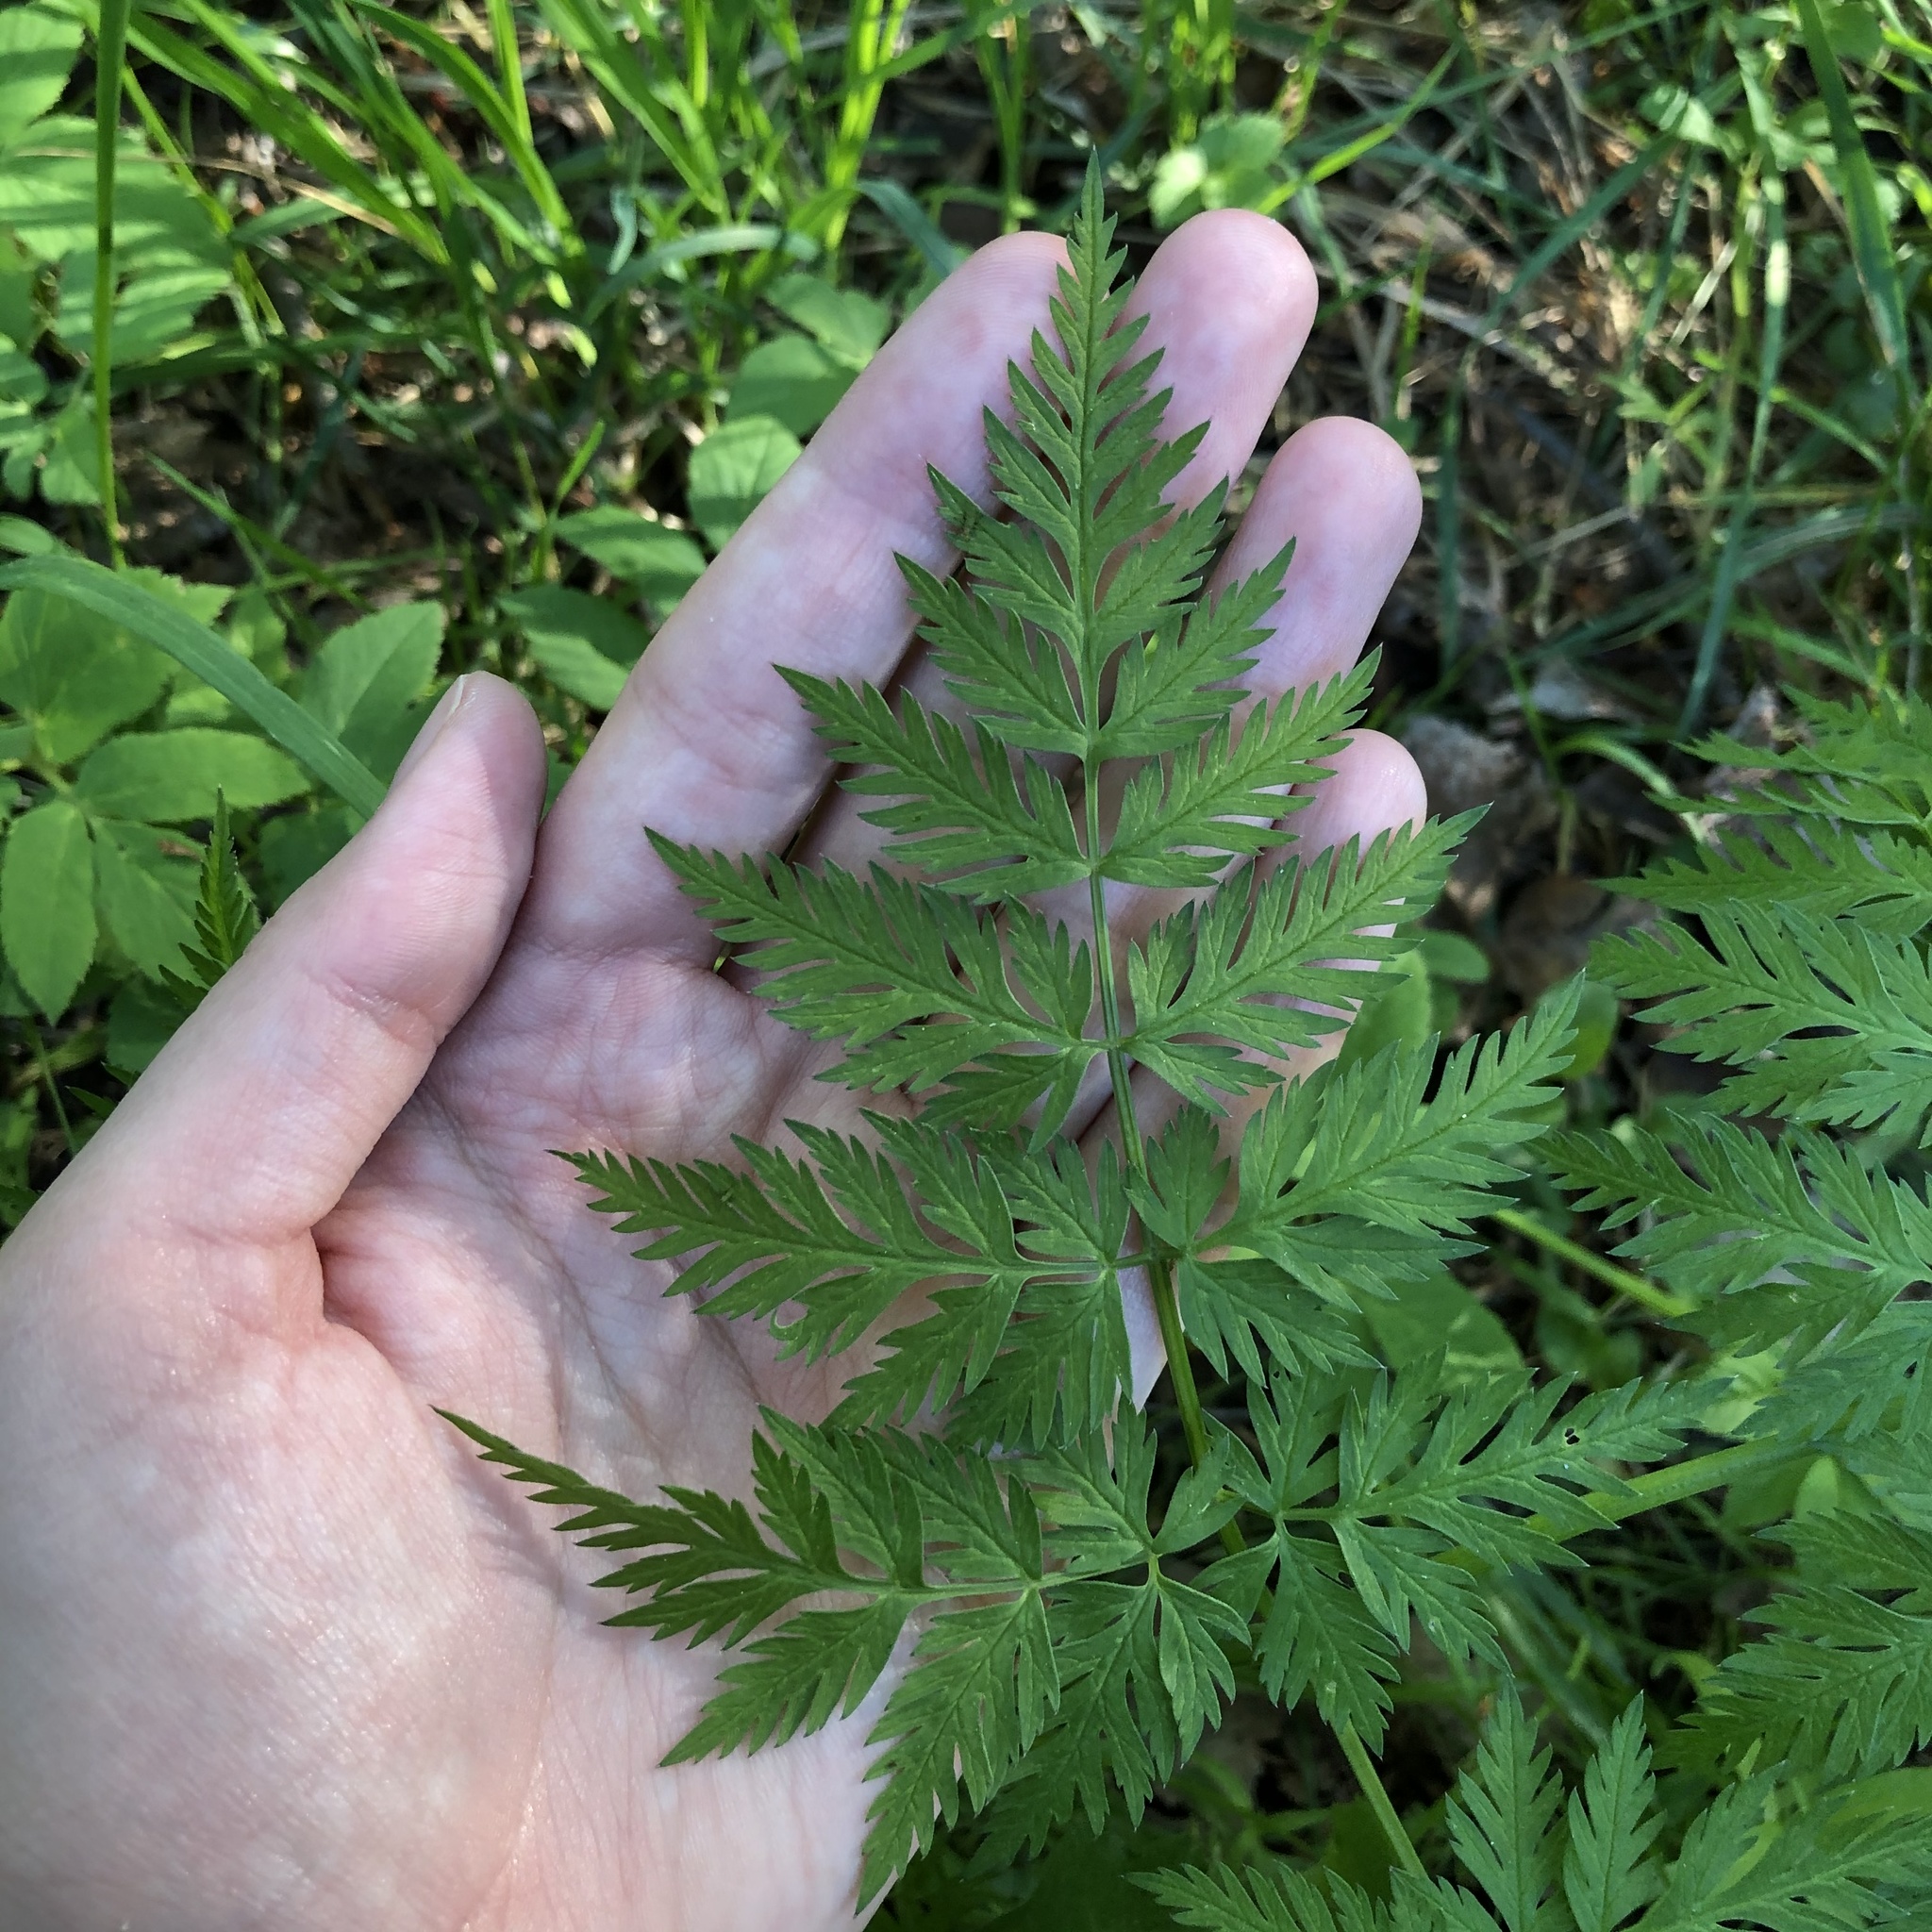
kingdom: Plantae
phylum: Tracheophyta
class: Magnoliopsida
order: Apiales
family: Apiaceae
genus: Anthriscus
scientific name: Anthriscus sylvestris
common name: Cow parsley
